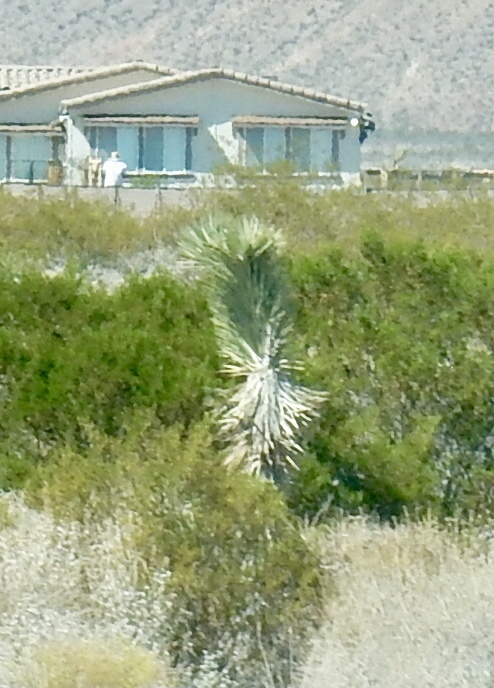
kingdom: Plantae
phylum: Tracheophyta
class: Liliopsida
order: Asparagales
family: Asparagaceae
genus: Yucca
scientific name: Yucca brevifolia
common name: Joshua tree
